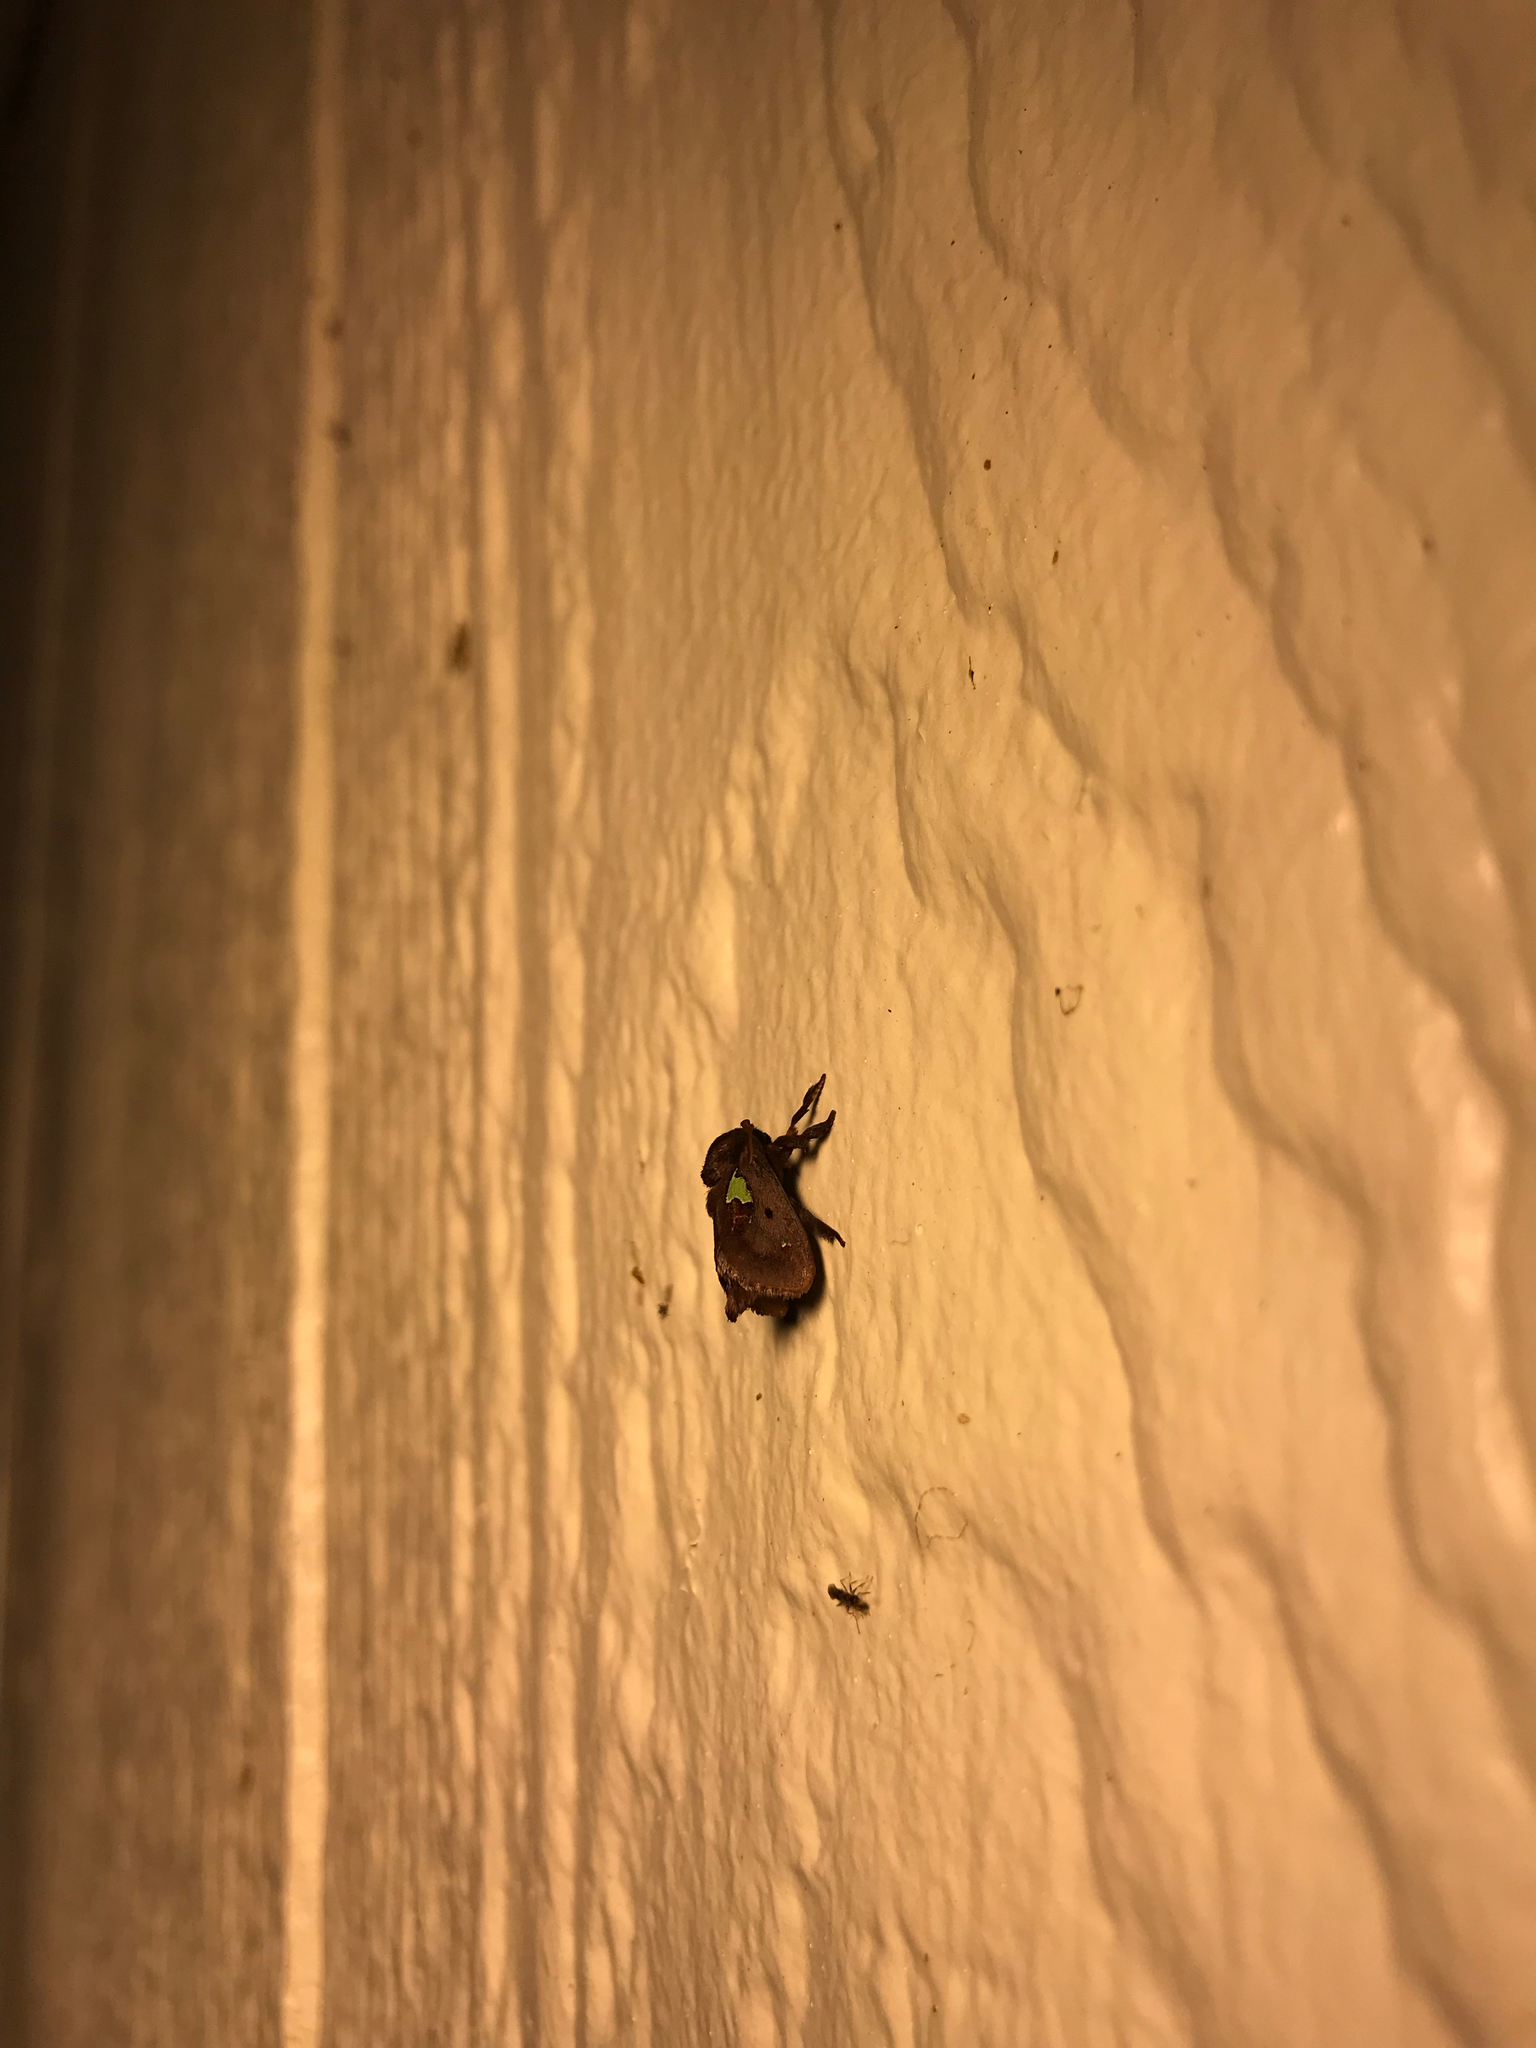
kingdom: Animalia
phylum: Arthropoda
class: Insecta
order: Lepidoptera
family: Limacodidae
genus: Euclea
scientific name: Euclea delphinii
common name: Spiny oak-slug moth
